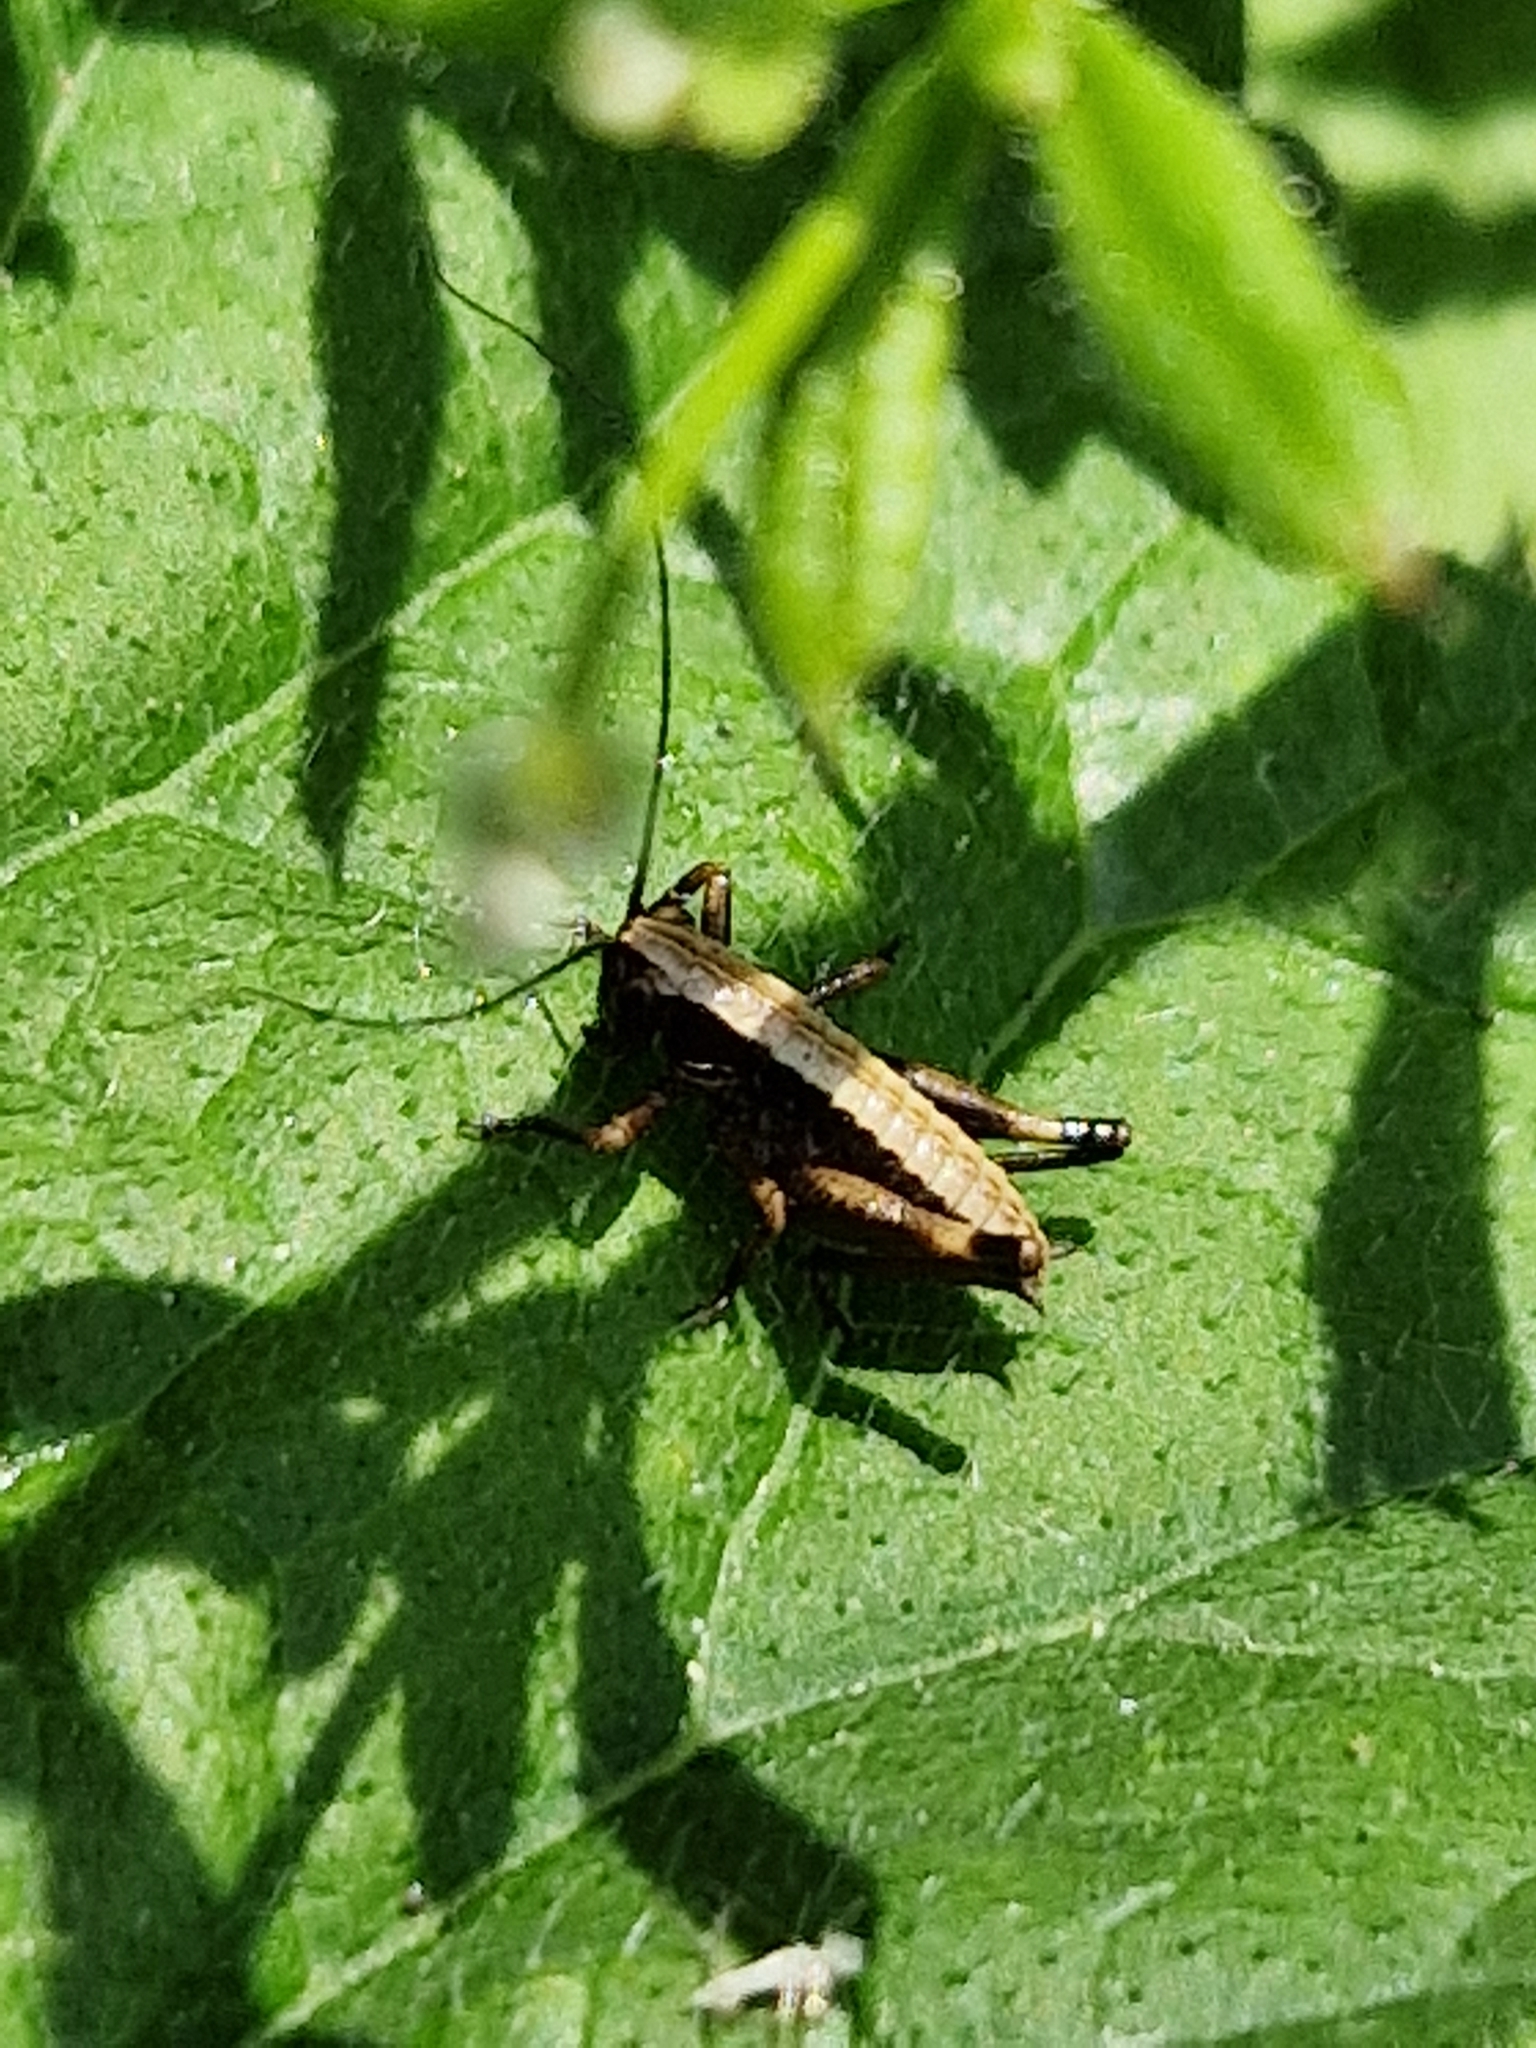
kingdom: Animalia
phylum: Arthropoda
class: Insecta
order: Orthoptera
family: Tettigoniidae
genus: Pholidoptera
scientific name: Pholidoptera griseoaptera
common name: Dark bush-cricket
